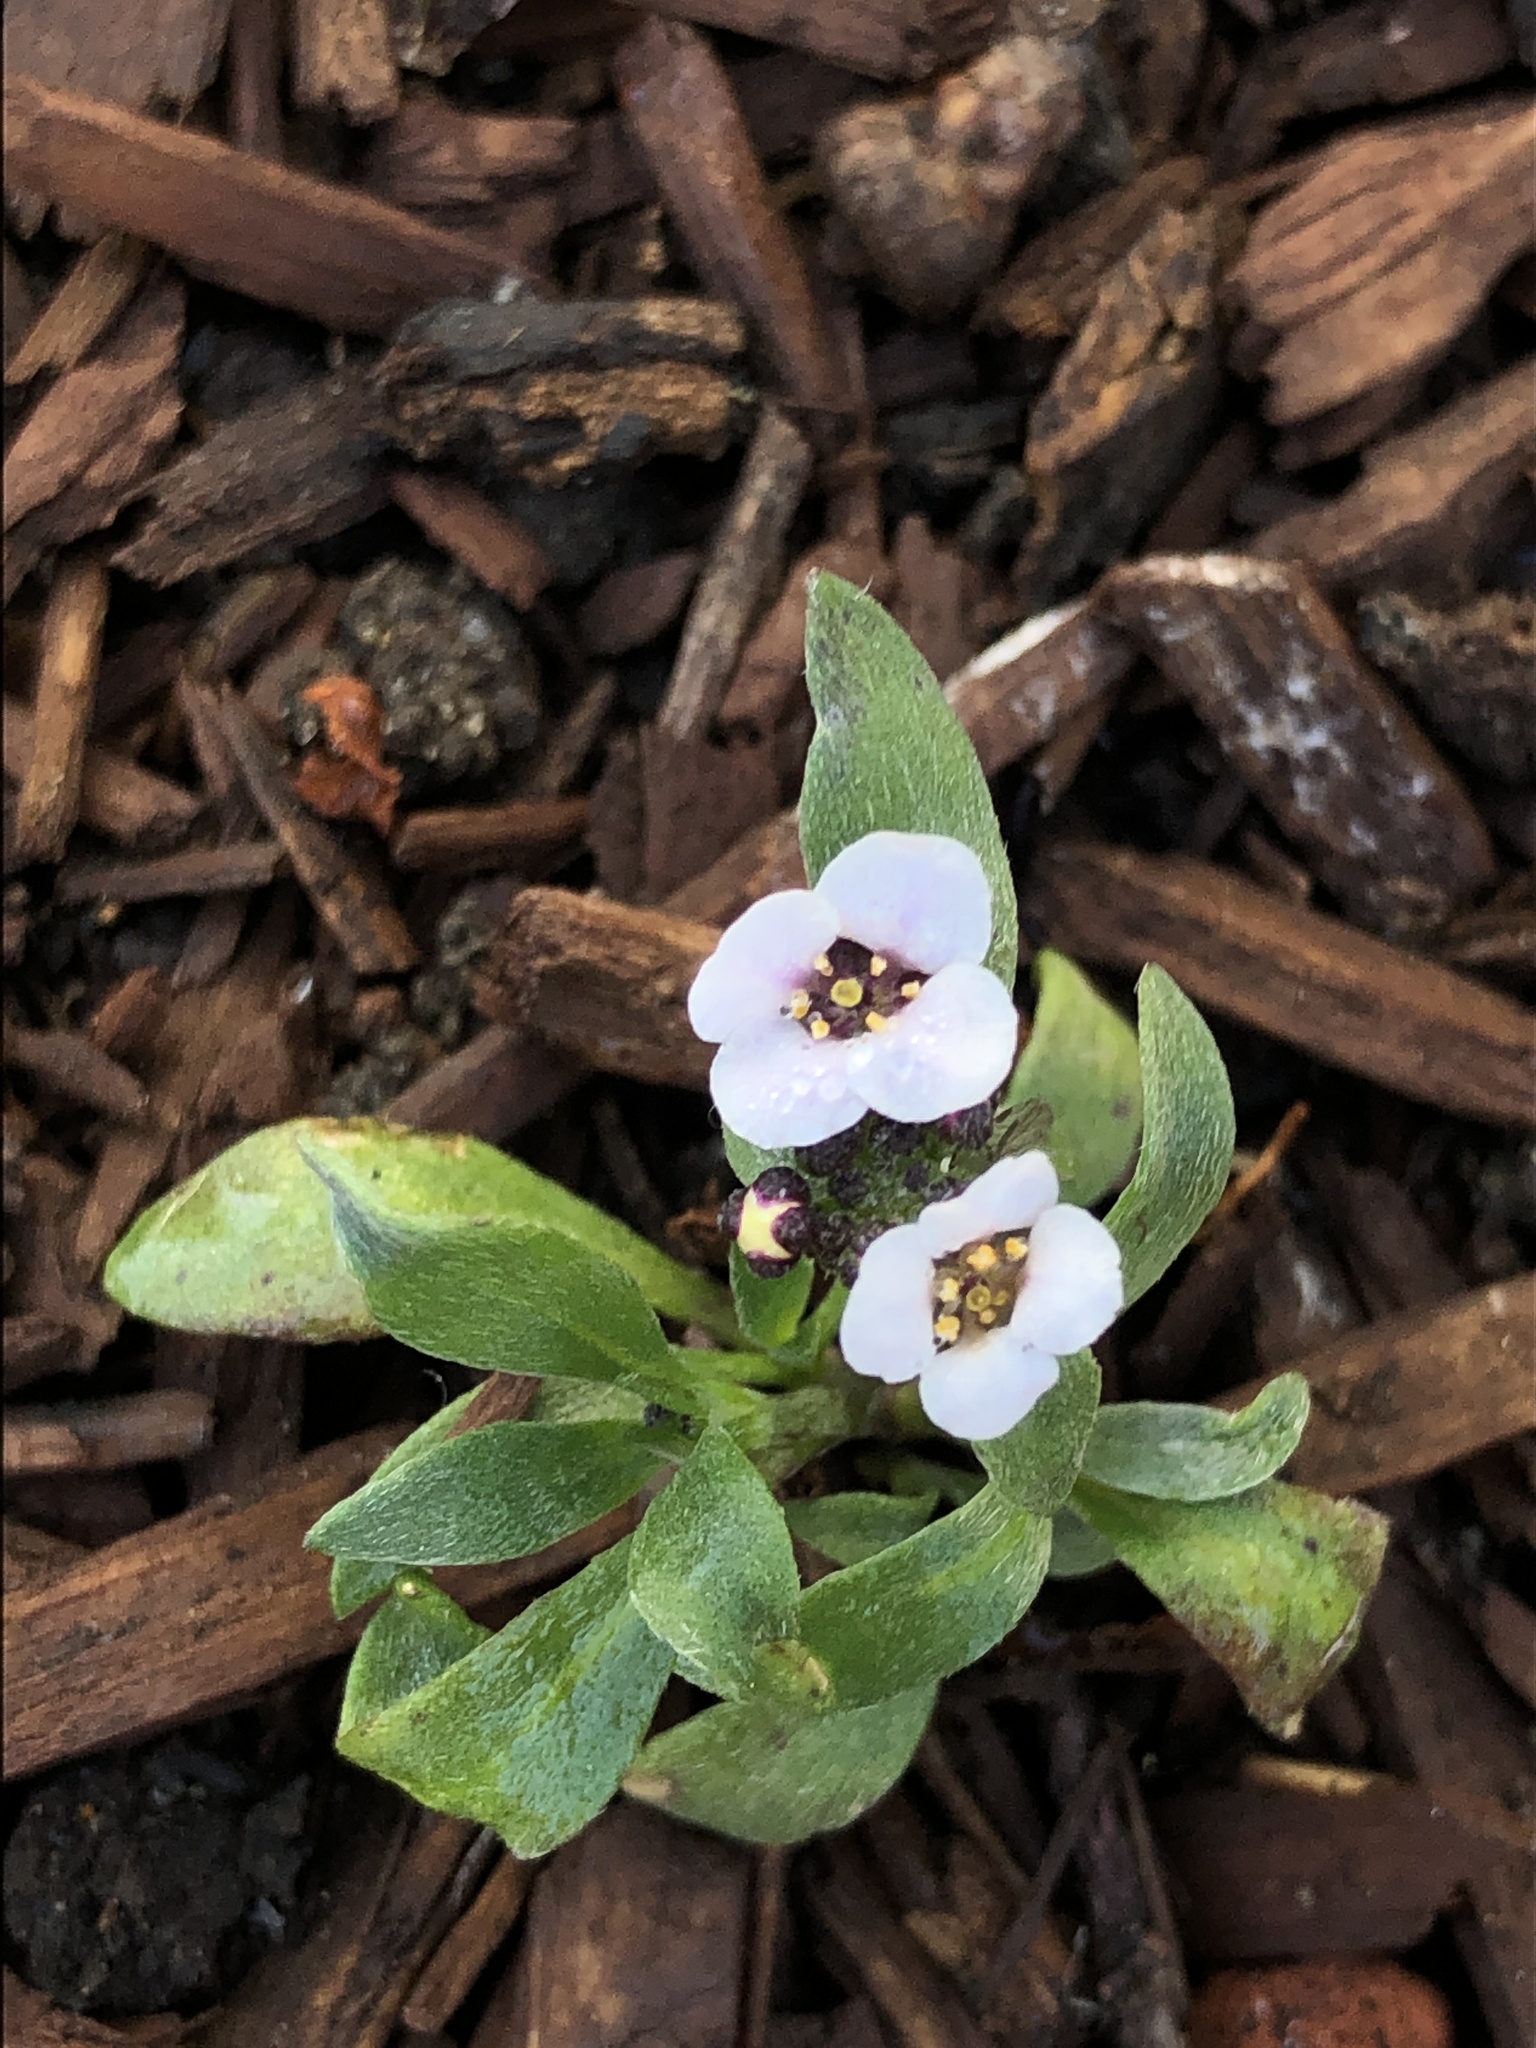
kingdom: Plantae
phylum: Tracheophyta
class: Magnoliopsida
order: Brassicales
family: Brassicaceae
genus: Lobularia
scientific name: Lobularia maritima
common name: Sweet alison
